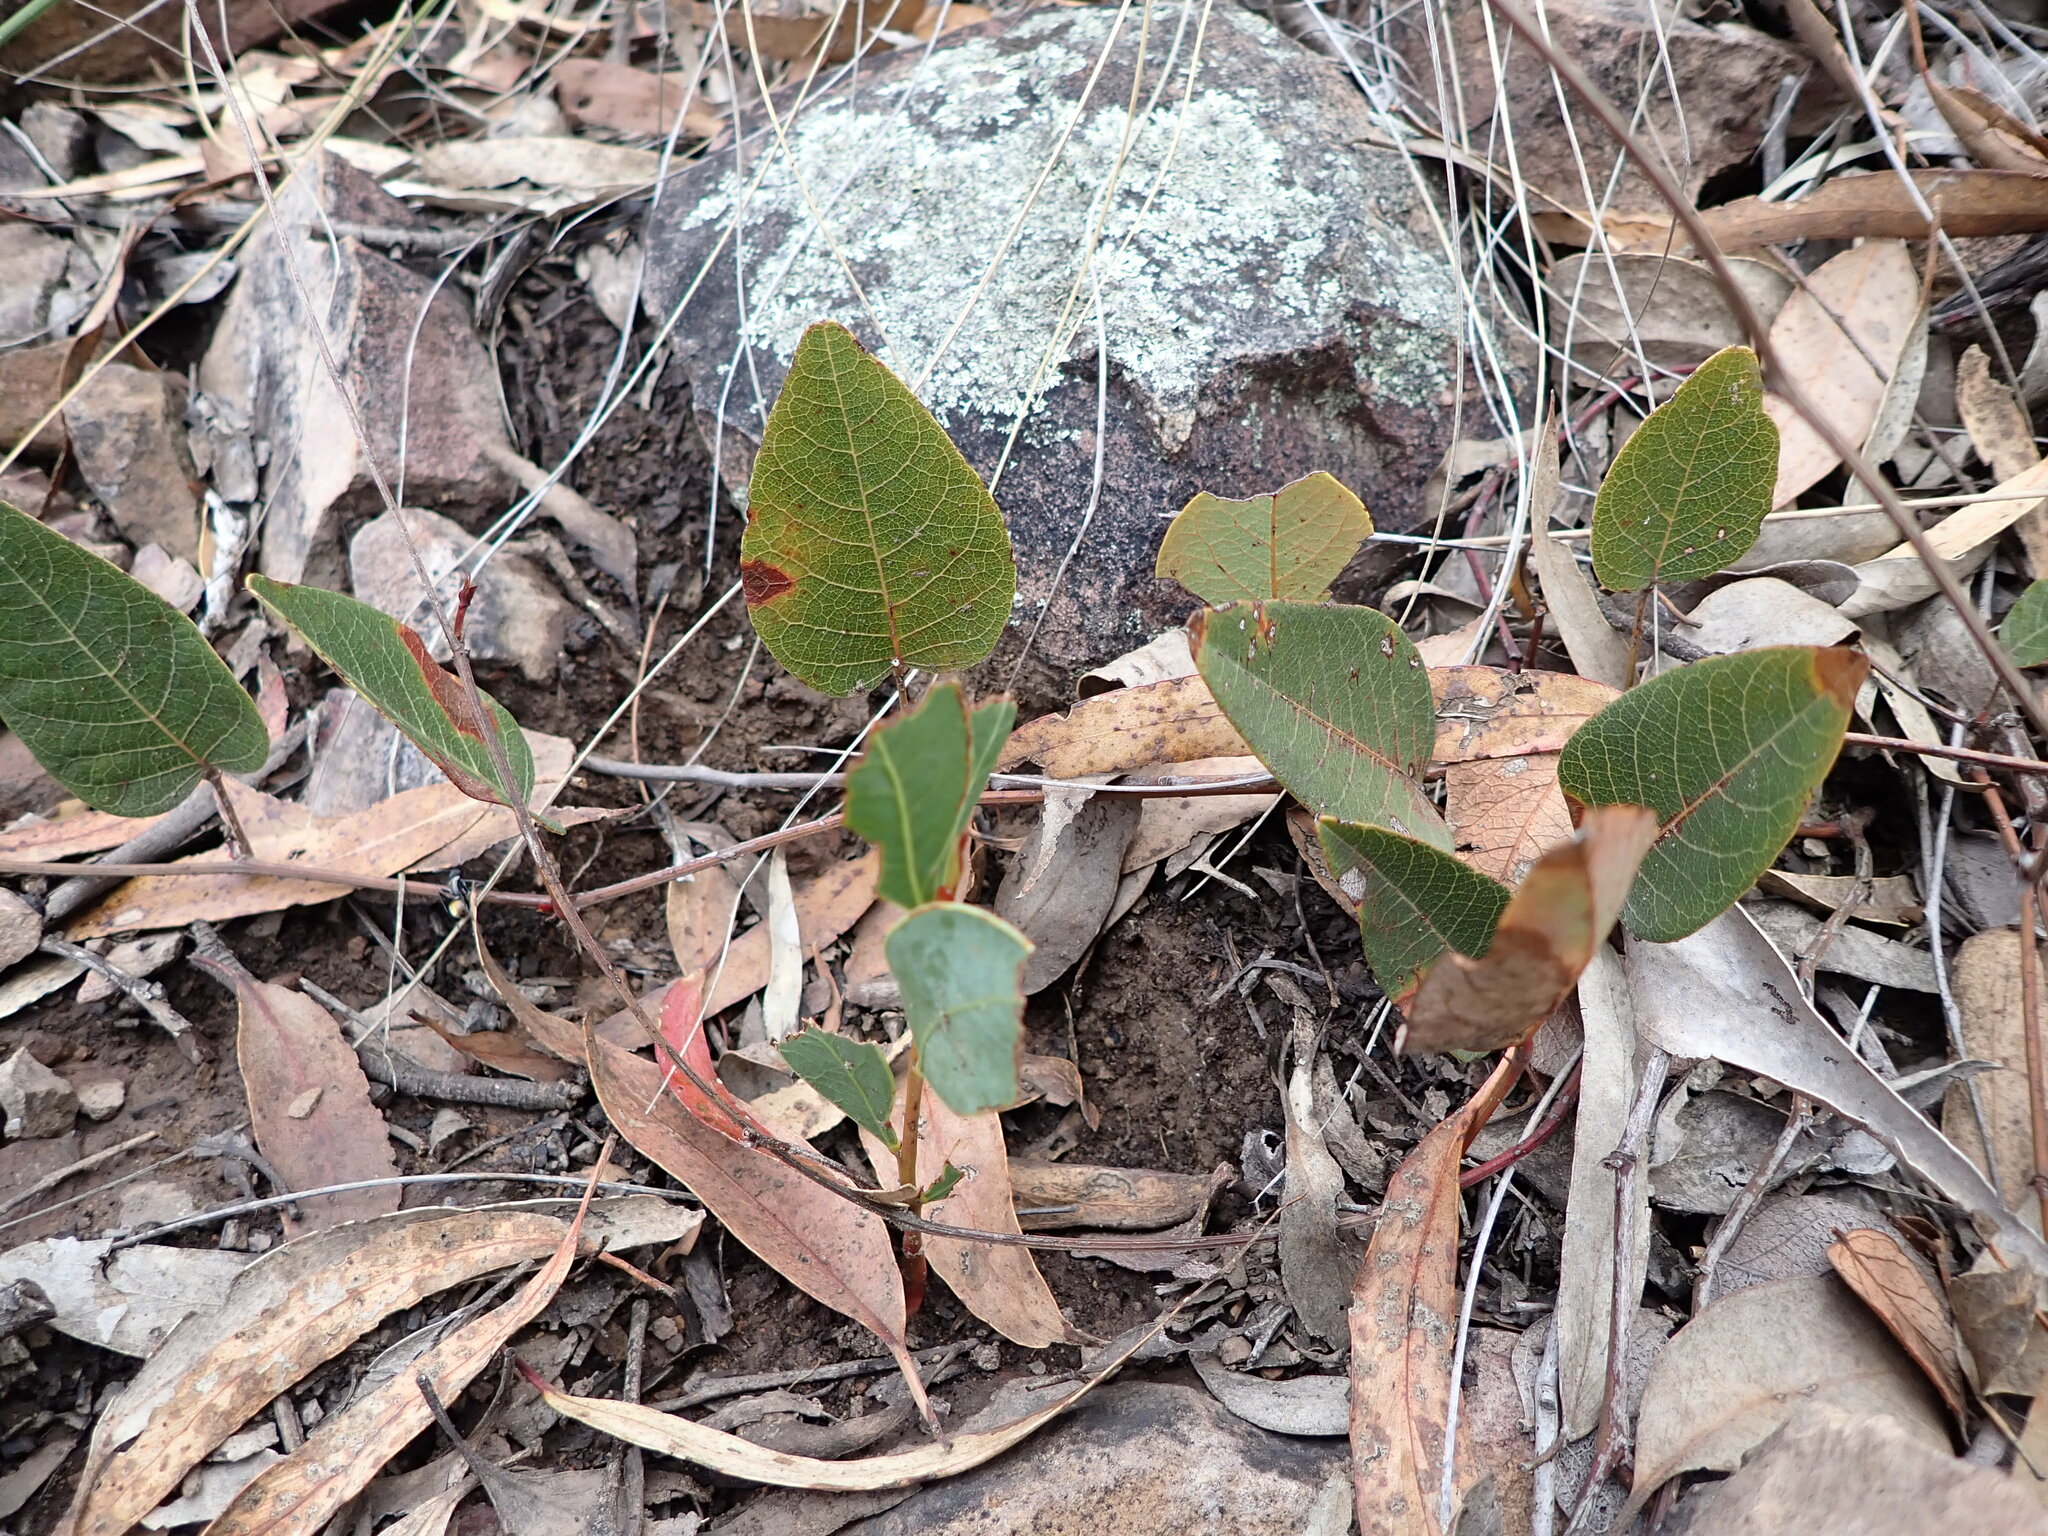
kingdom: Plantae
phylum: Tracheophyta
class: Magnoliopsida
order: Fabales
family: Fabaceae
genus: Hardenbergia
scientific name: Hardenbergia violacea
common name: Coral-pea
